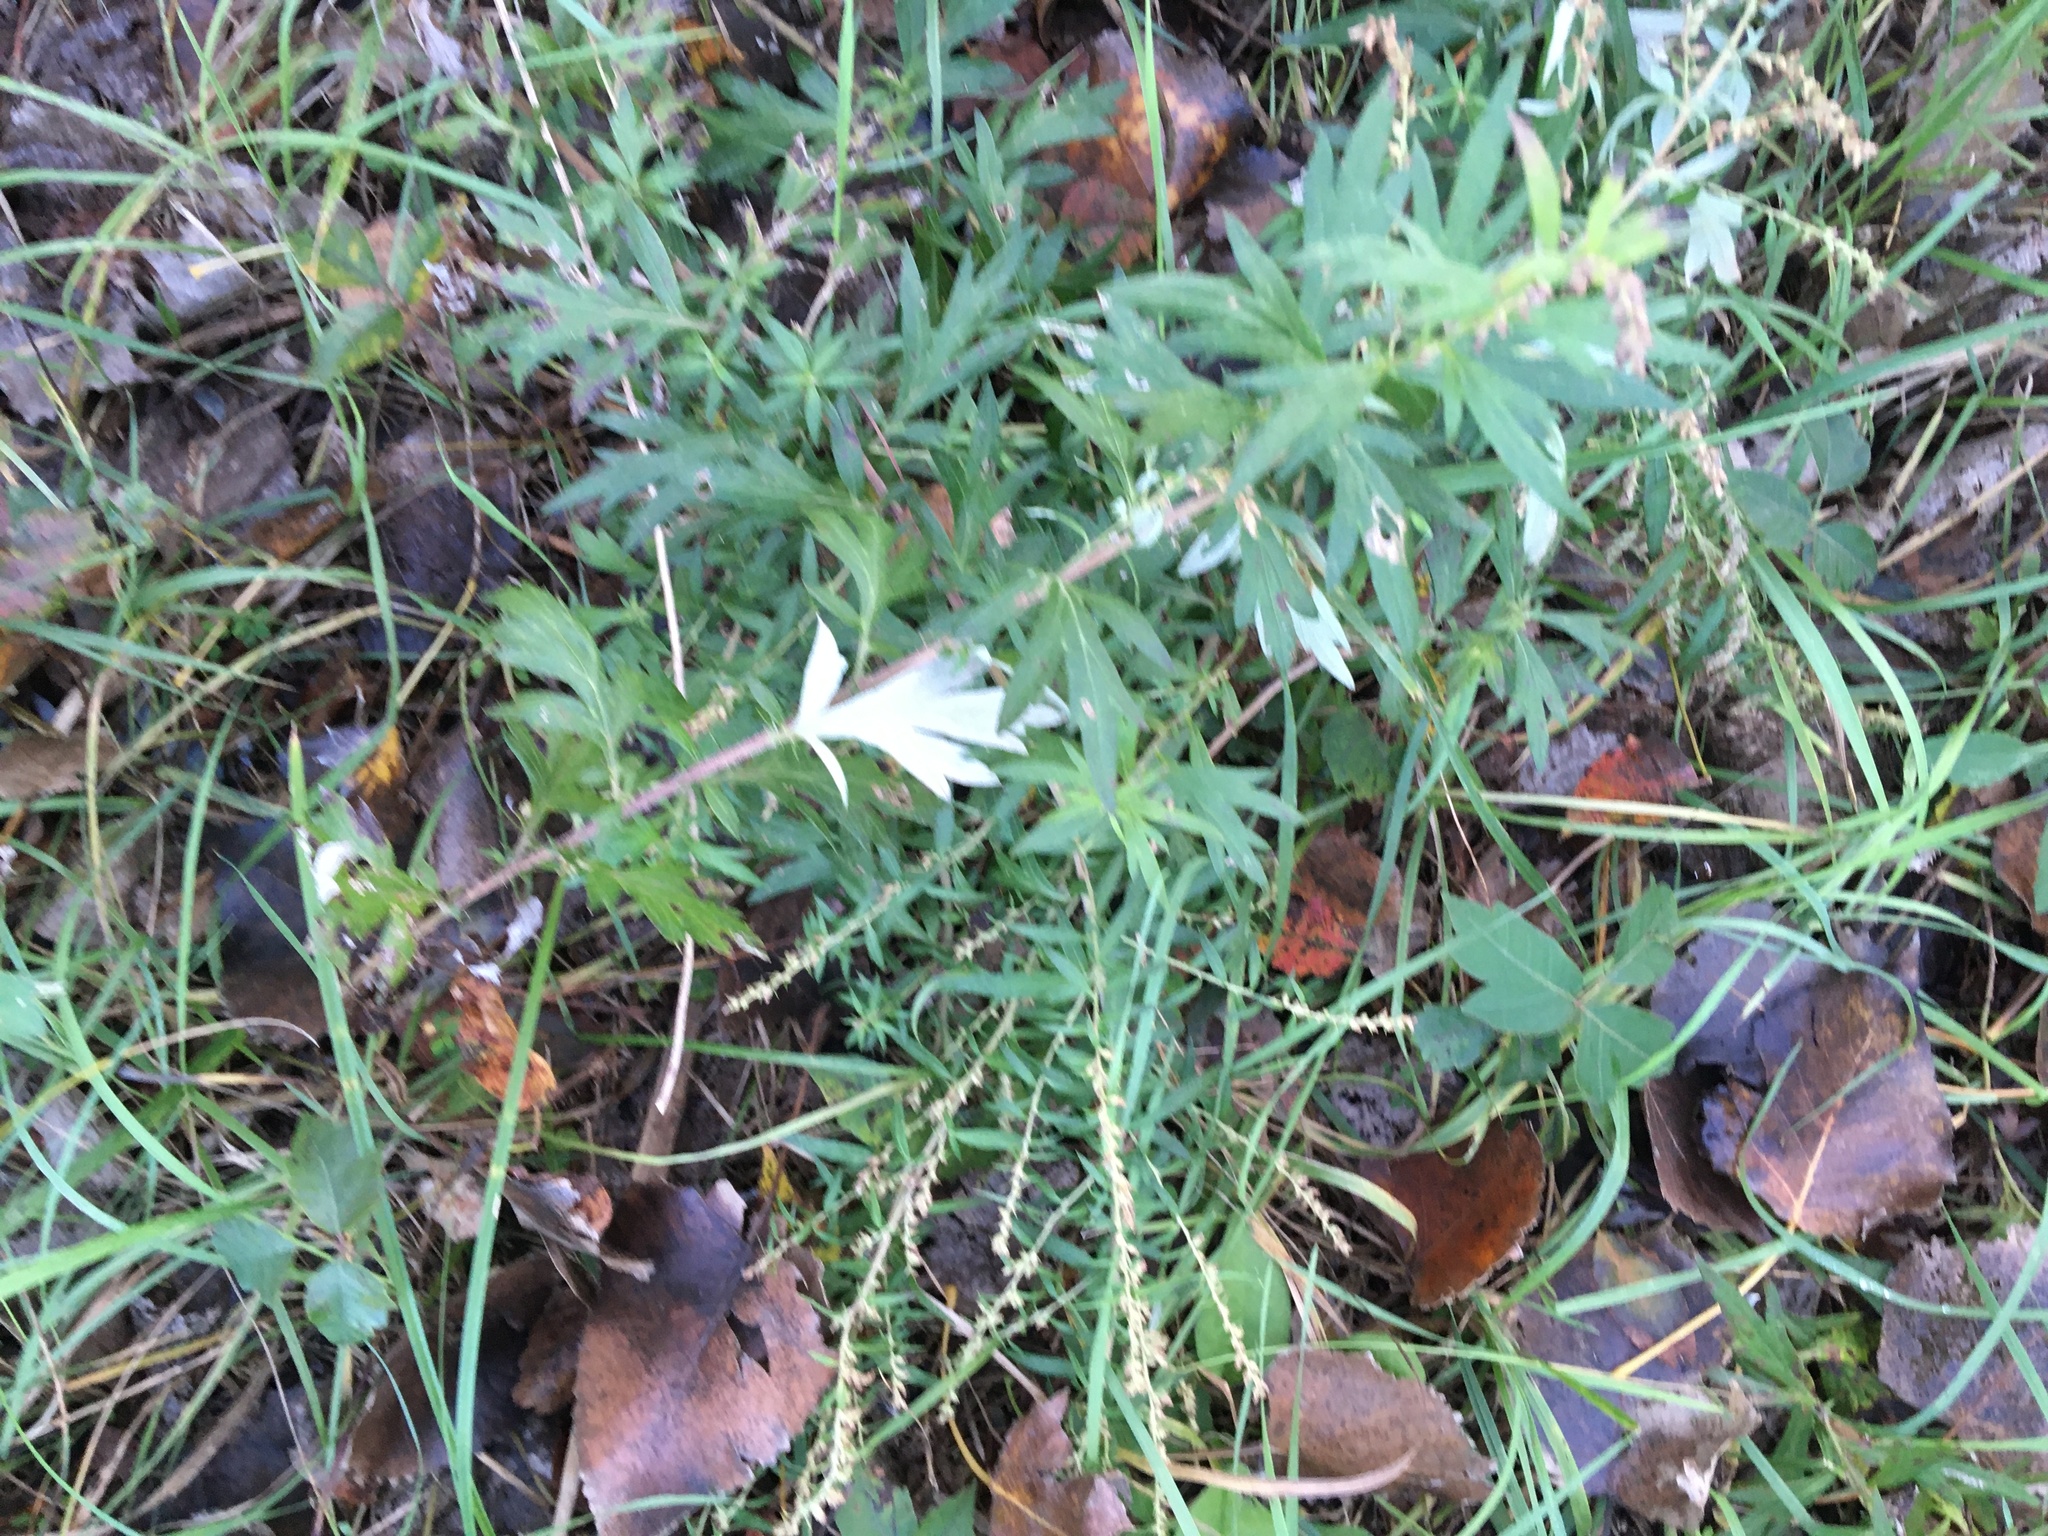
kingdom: Plantae
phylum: Tracheophyta
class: Magnoliopsida
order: Asterales
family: Asteraceae
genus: Artemisia
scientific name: Artemisia vulgaris
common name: Mugwort
